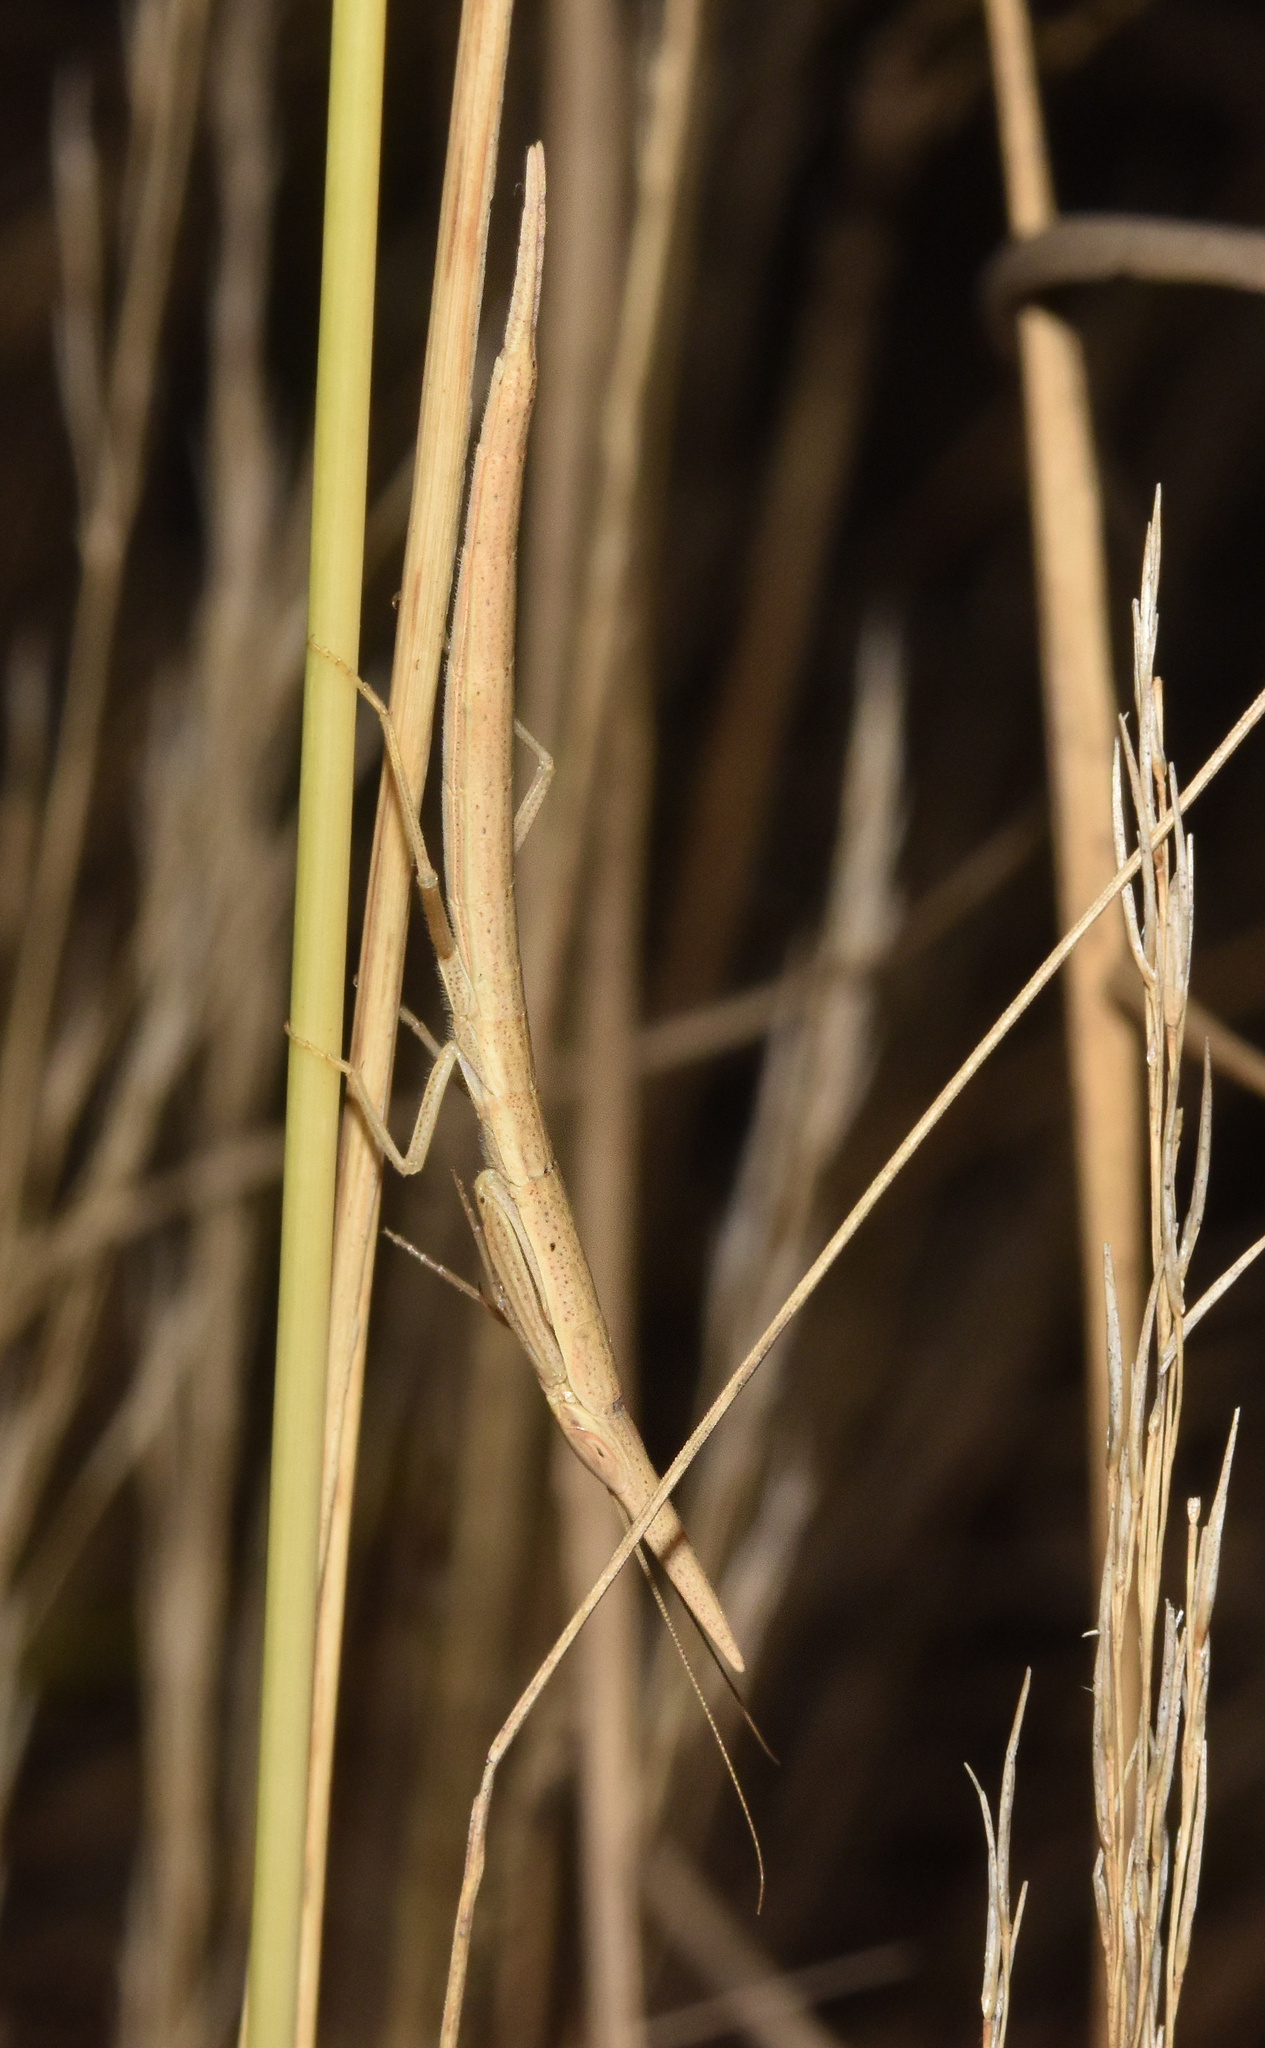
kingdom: Animalia
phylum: Arthropoda
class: Insecta
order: Mantodea
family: Eremiaphilidae
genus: Pyrgomantis
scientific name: Pyrgomantis rhodesica
